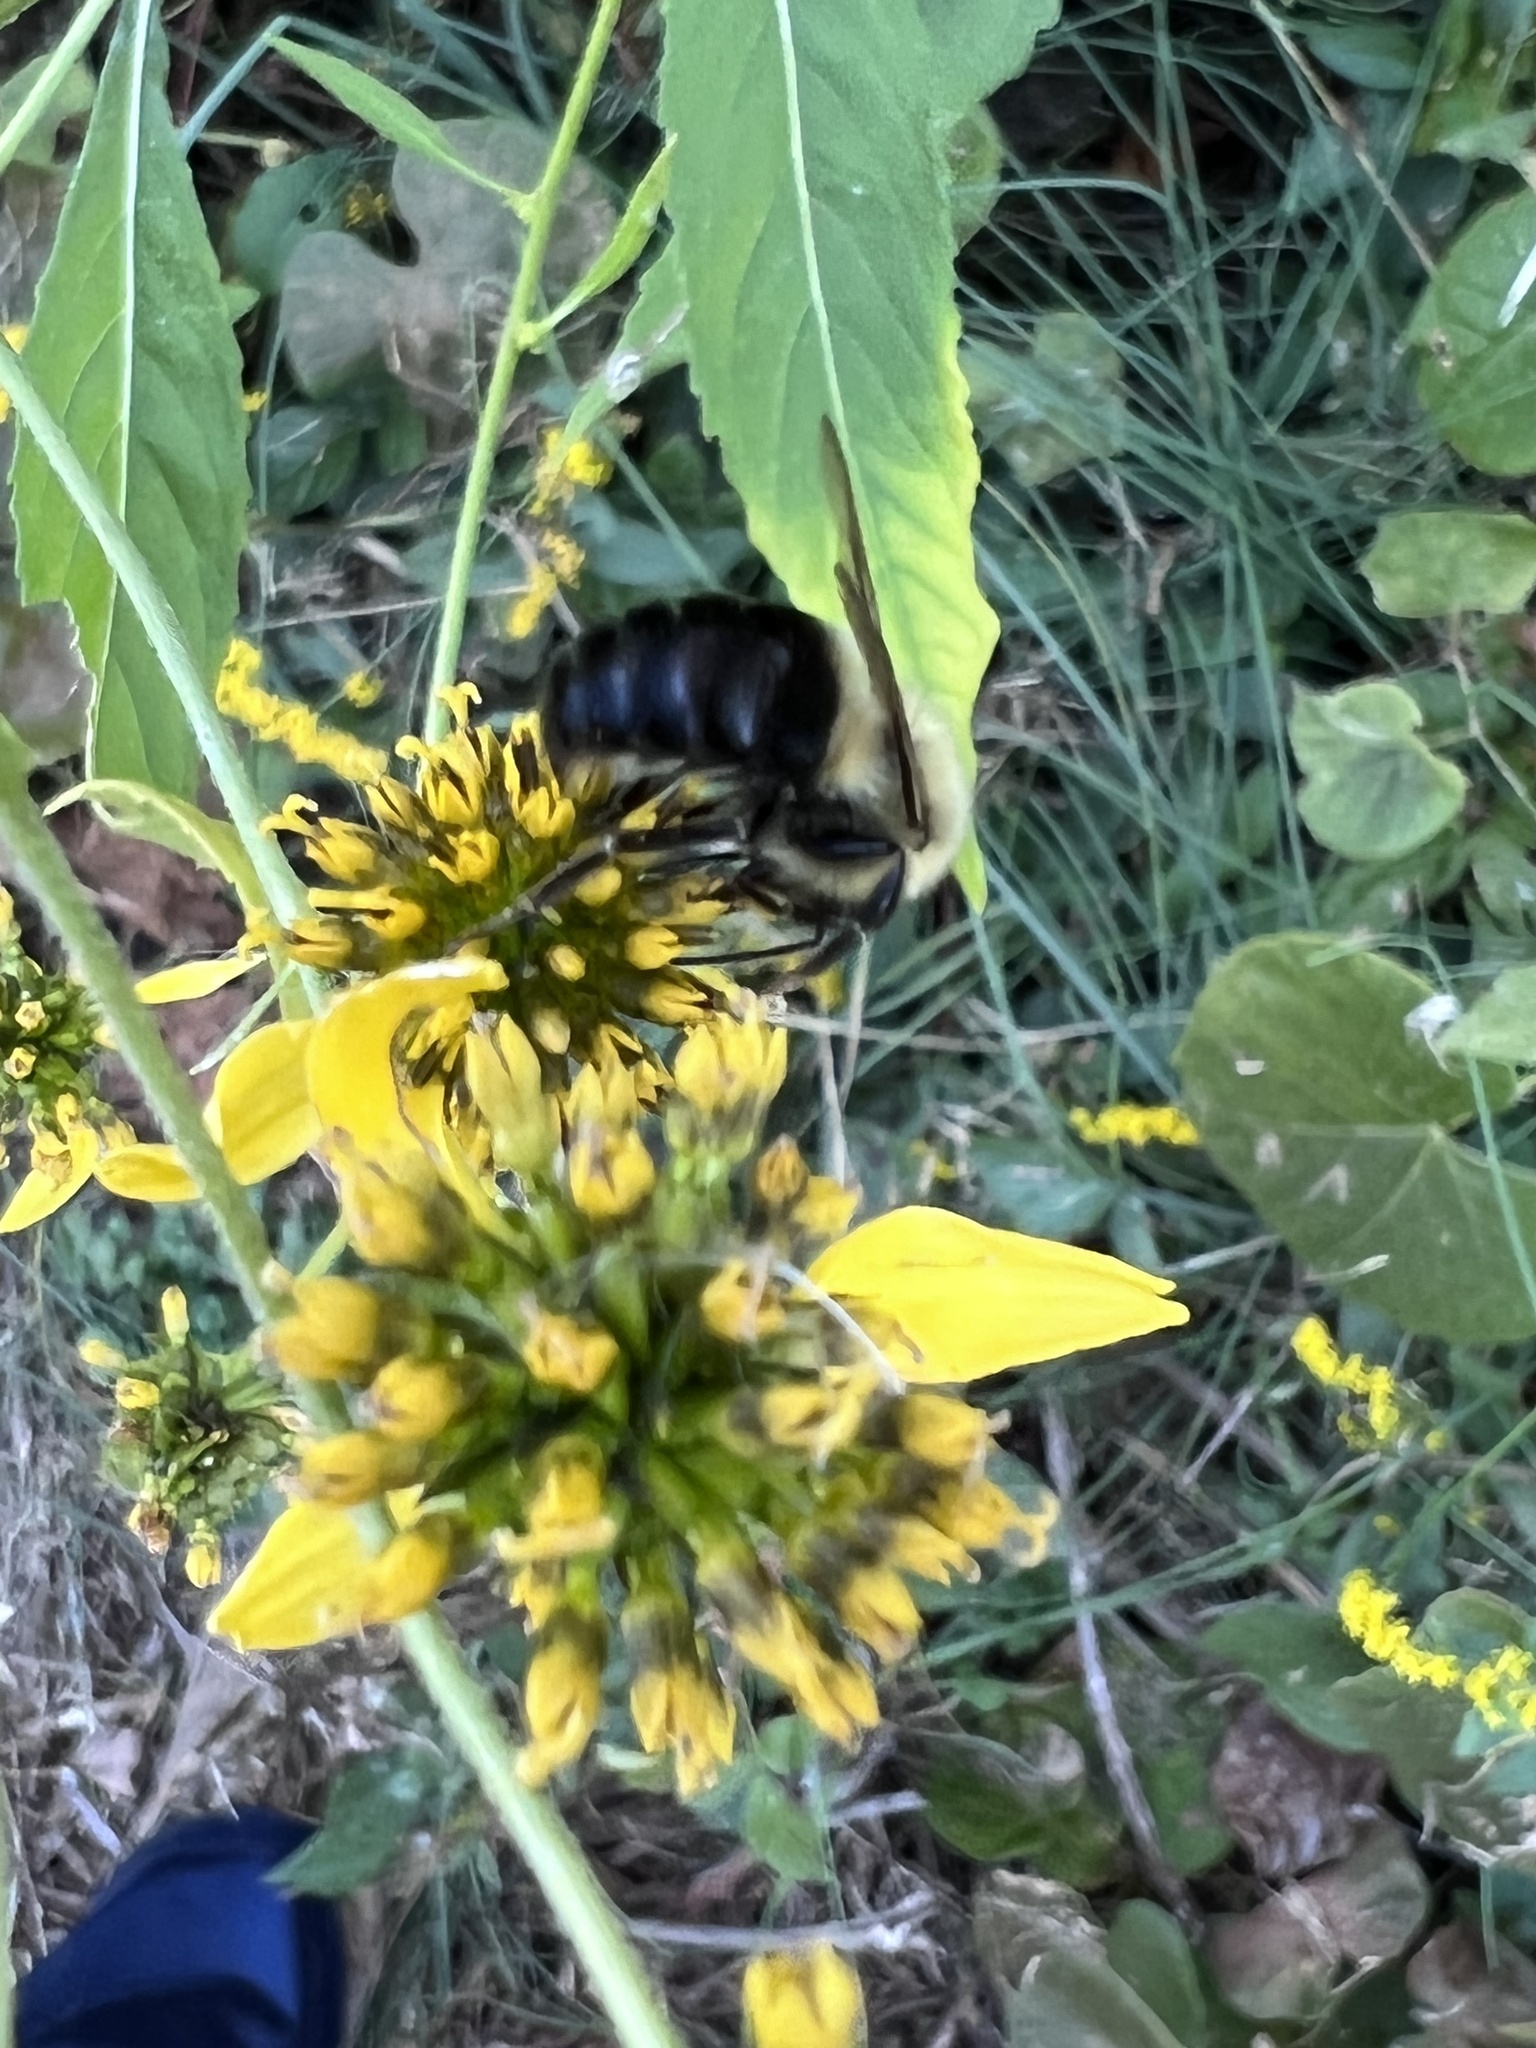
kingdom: Animalia
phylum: Arthropoda
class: Insecta
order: Hymenoptera
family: Apidae
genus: Bombus
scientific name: Bombus impatiens
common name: Common eastern bumble bee
